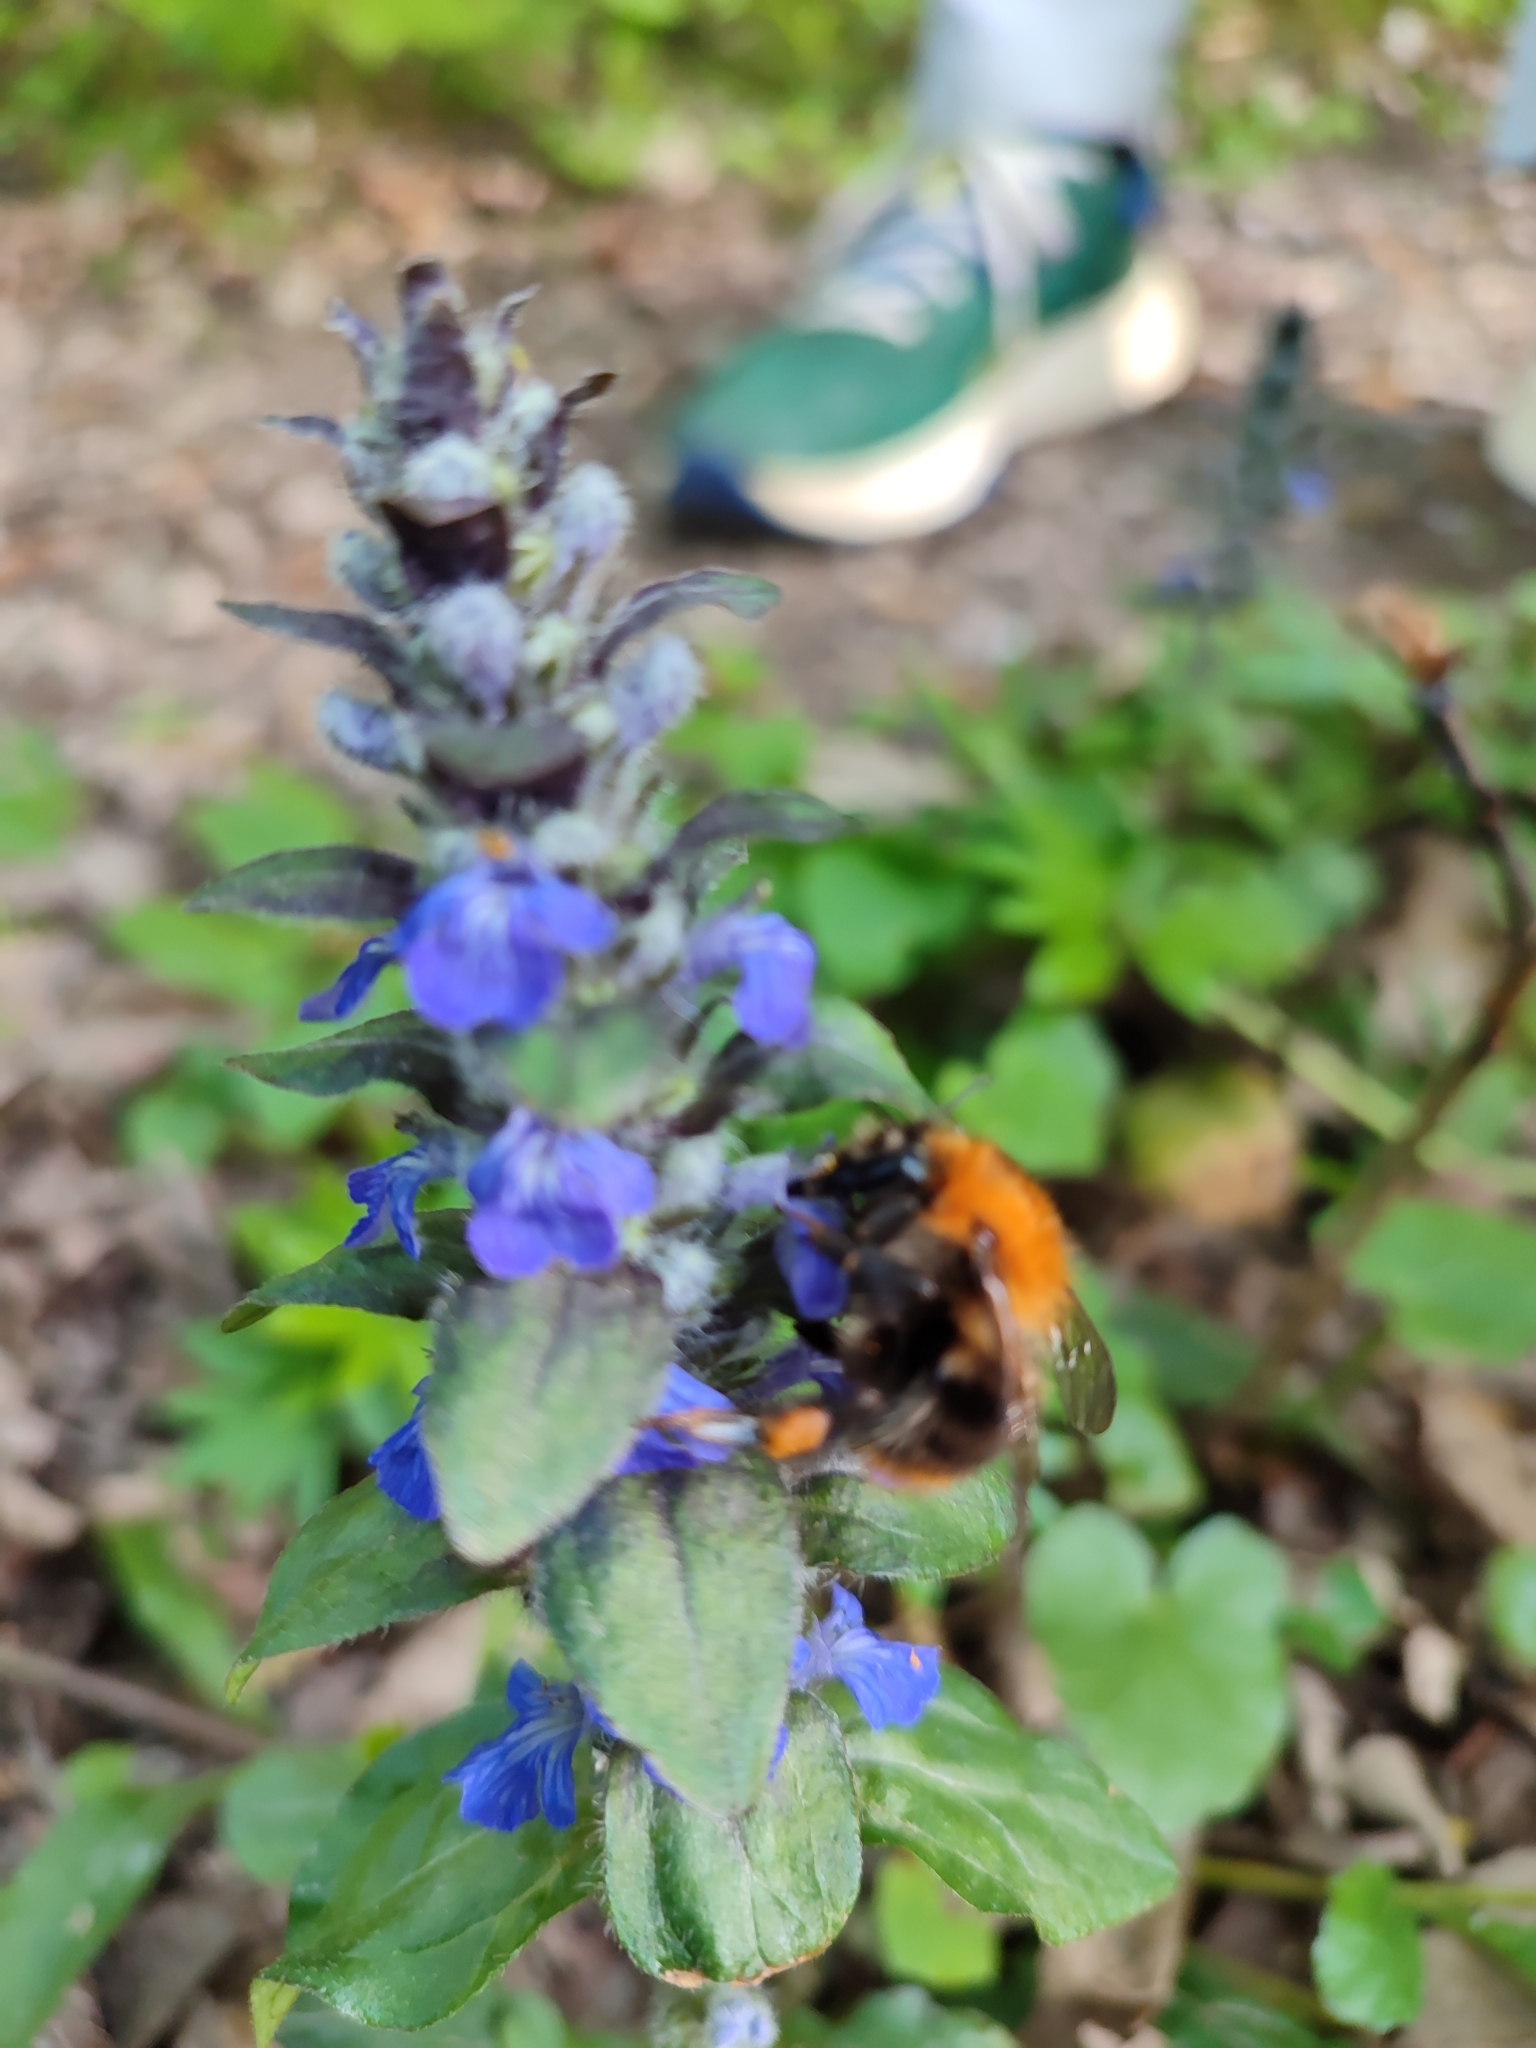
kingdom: Animalia
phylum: Arthropoda
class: Insecta
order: Hymenoptera
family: Apidae
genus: Bombus
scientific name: Bombus pascuorum
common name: Common carder bee
